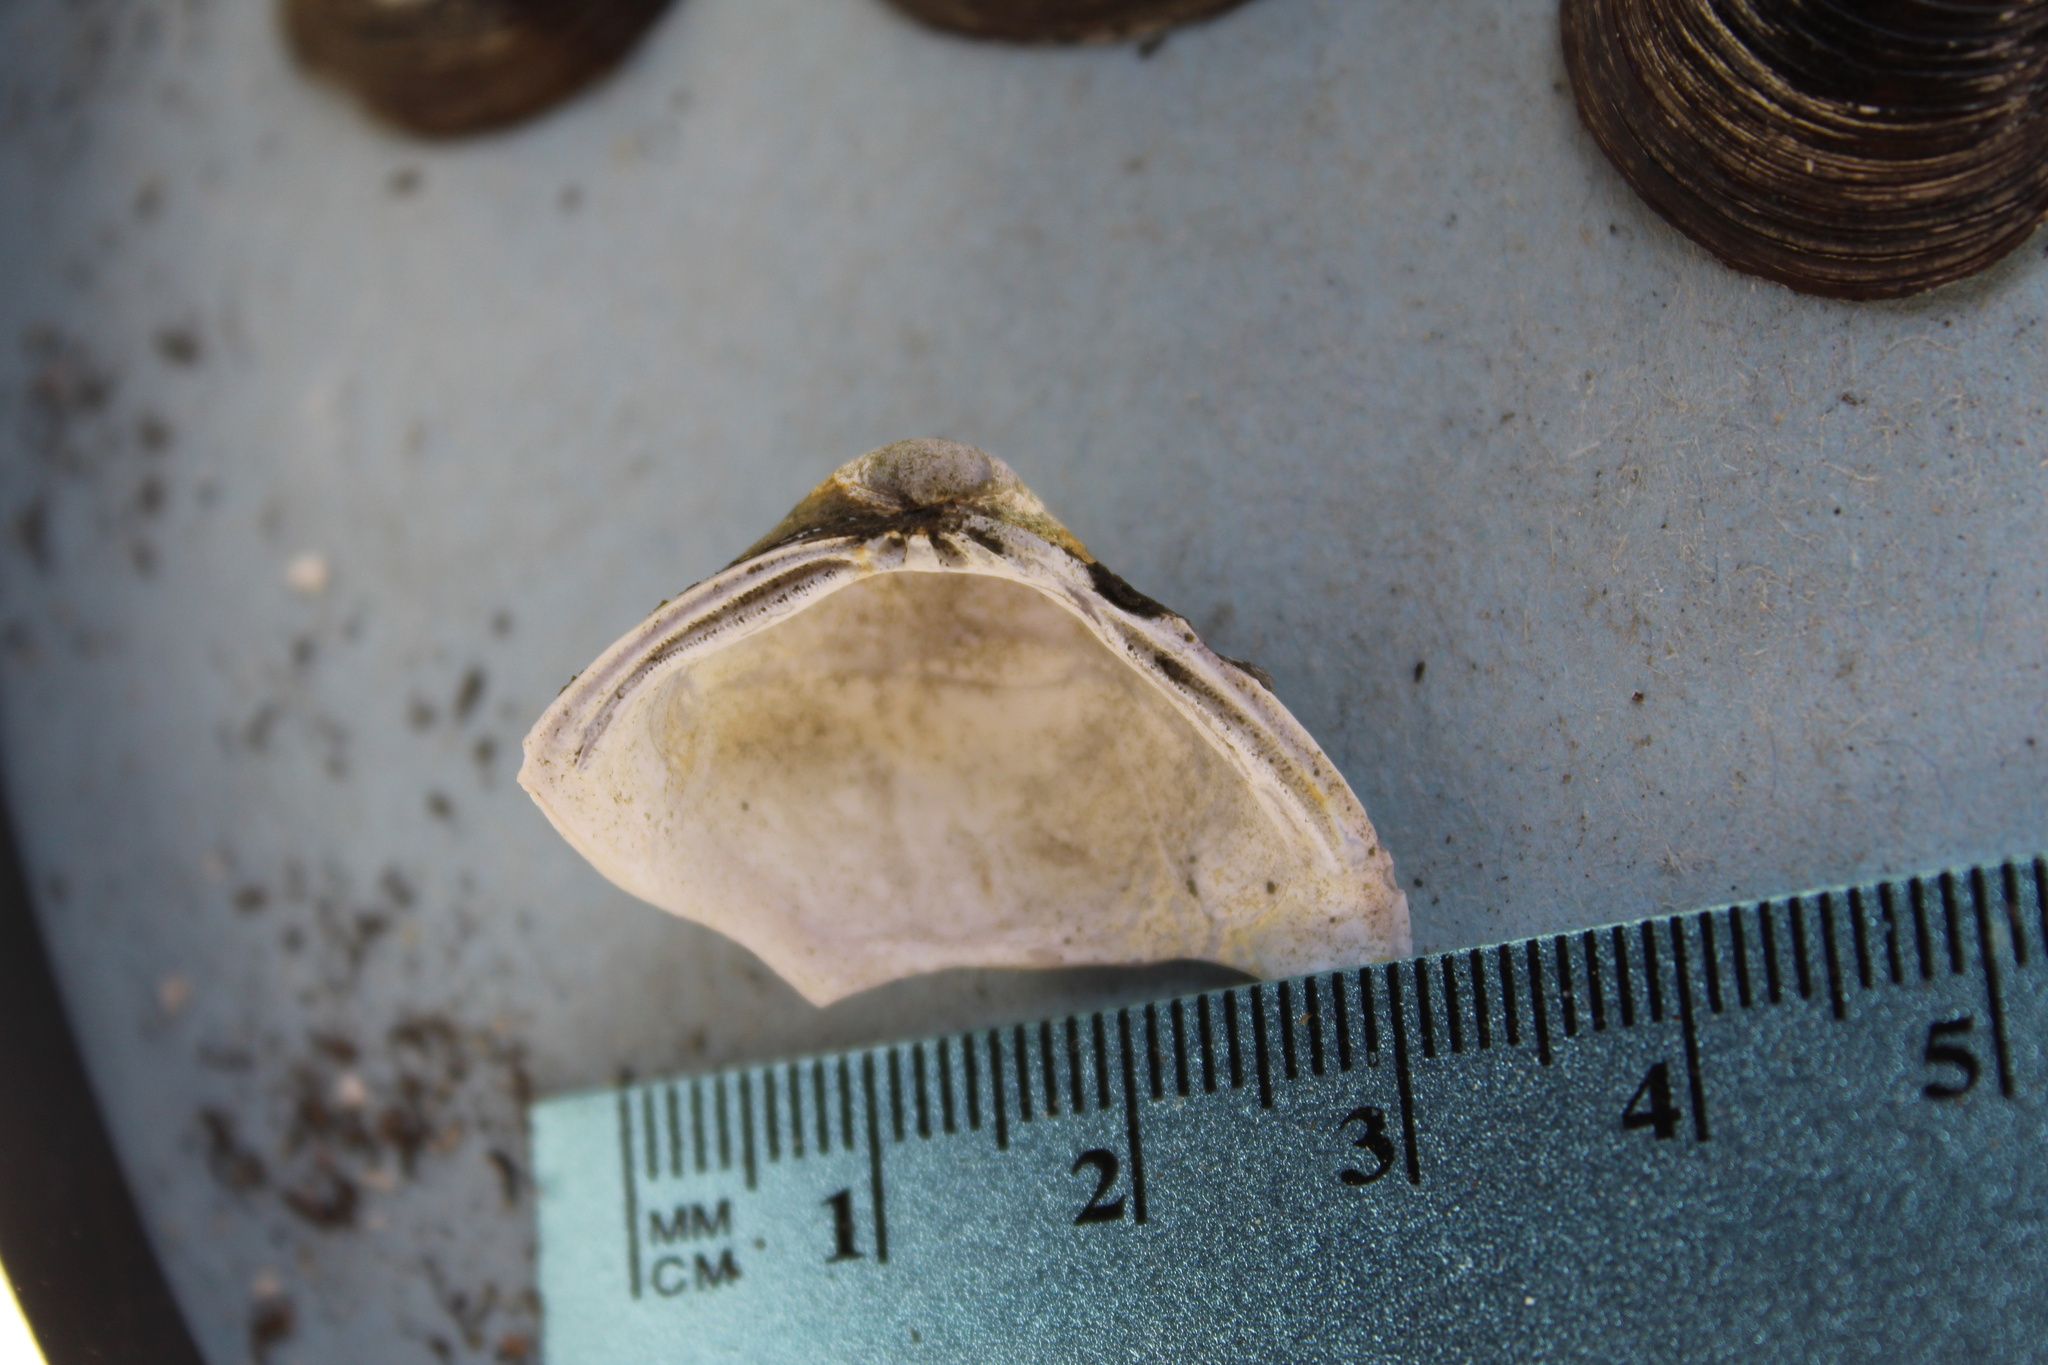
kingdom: Animalia
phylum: Mollusca
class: Bivalvia
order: Venerida
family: Cyrenidae
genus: Corbicula
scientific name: Corbicula fluminea
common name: Asian clam
